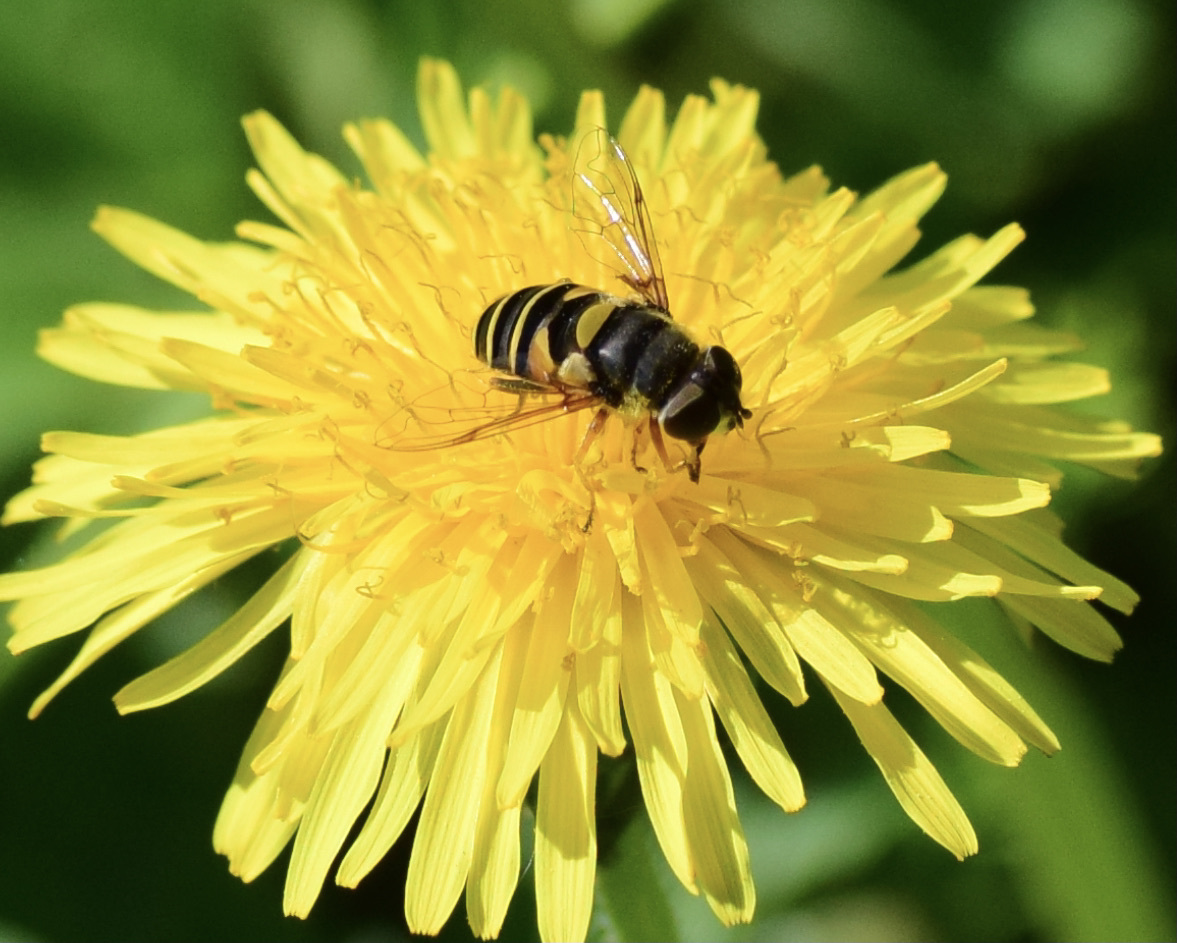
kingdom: Animalia
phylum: Arthropoda
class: Insecta
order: Diptera
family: Syrphidae
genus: Eristalis
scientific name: Eristalis transversa
